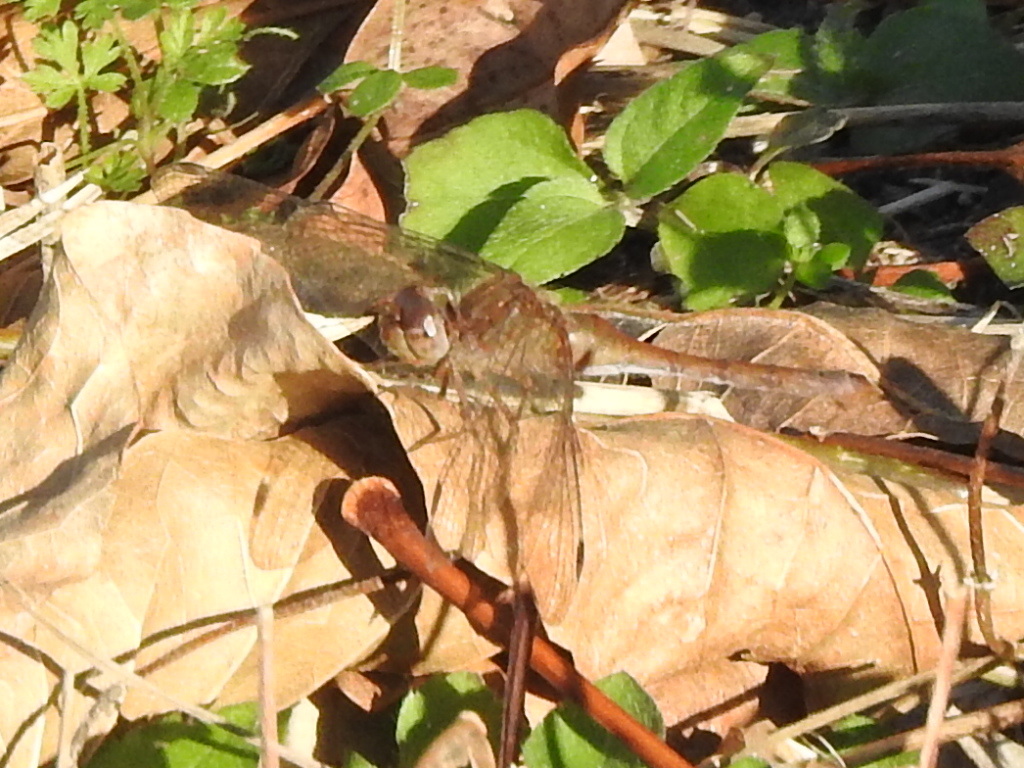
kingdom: Animalia
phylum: Arthropoda
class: Insecta
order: Odonata
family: Libellulidae
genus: Sympetrum
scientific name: Sympetrum vicinum
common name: Autumn meadowhawk
